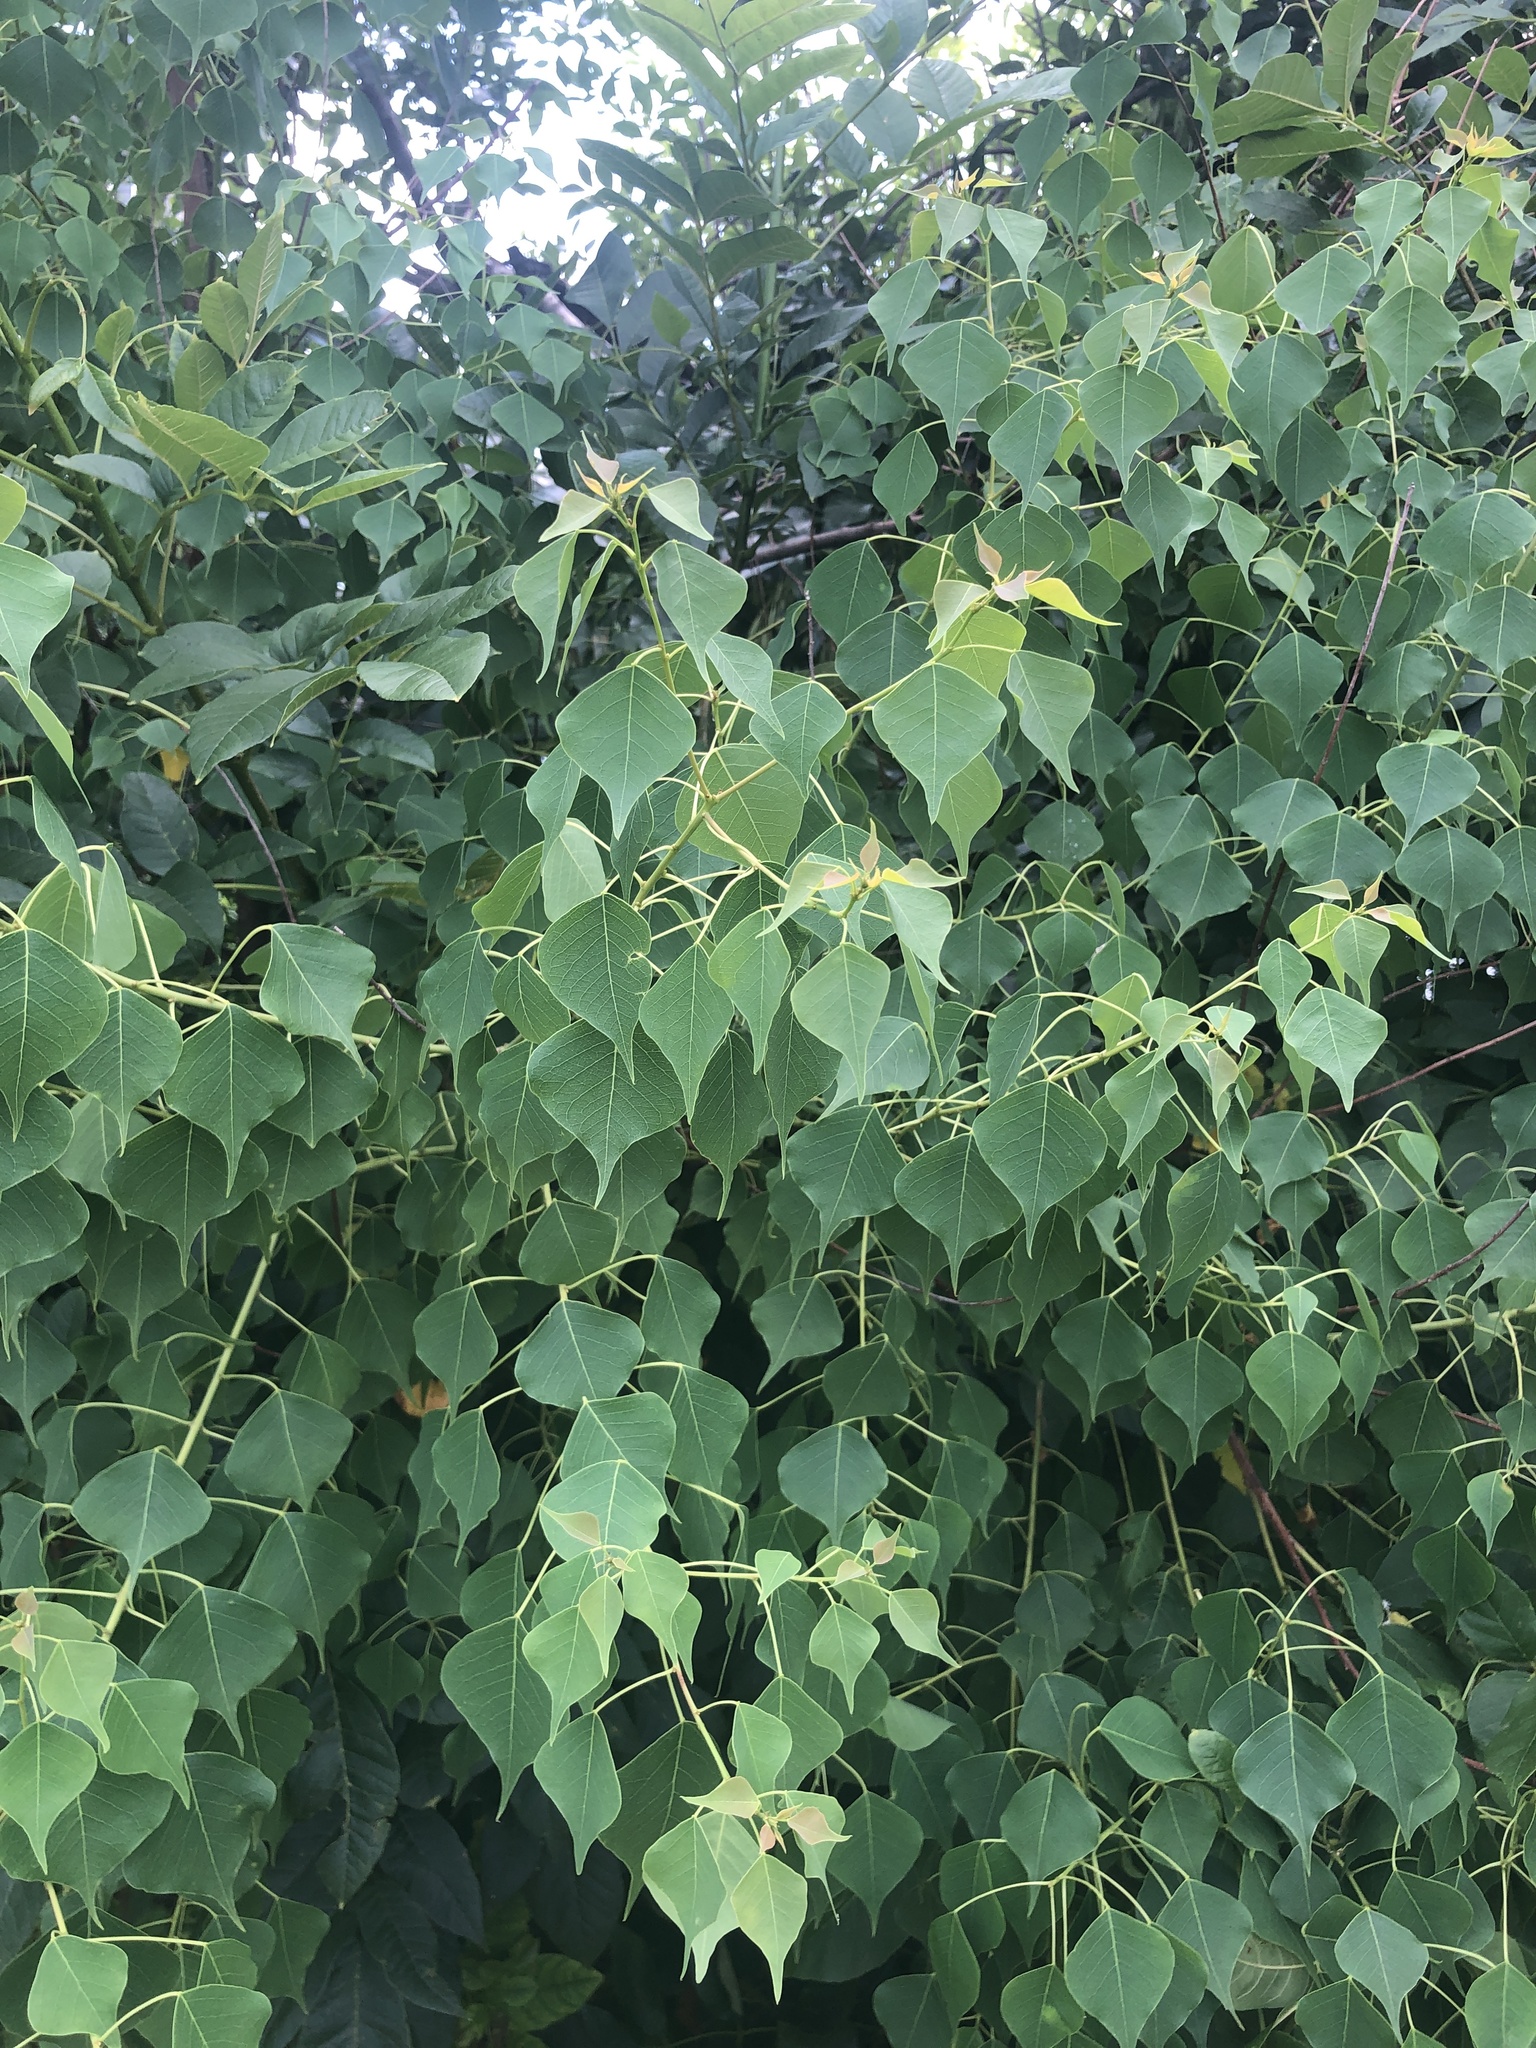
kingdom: Plantae
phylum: Tracheophyta
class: Magnoliopsida
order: Malpighiales
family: Euphorbiaceae
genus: Triadica
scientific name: Triadica sebifera
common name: Chinese tallow
